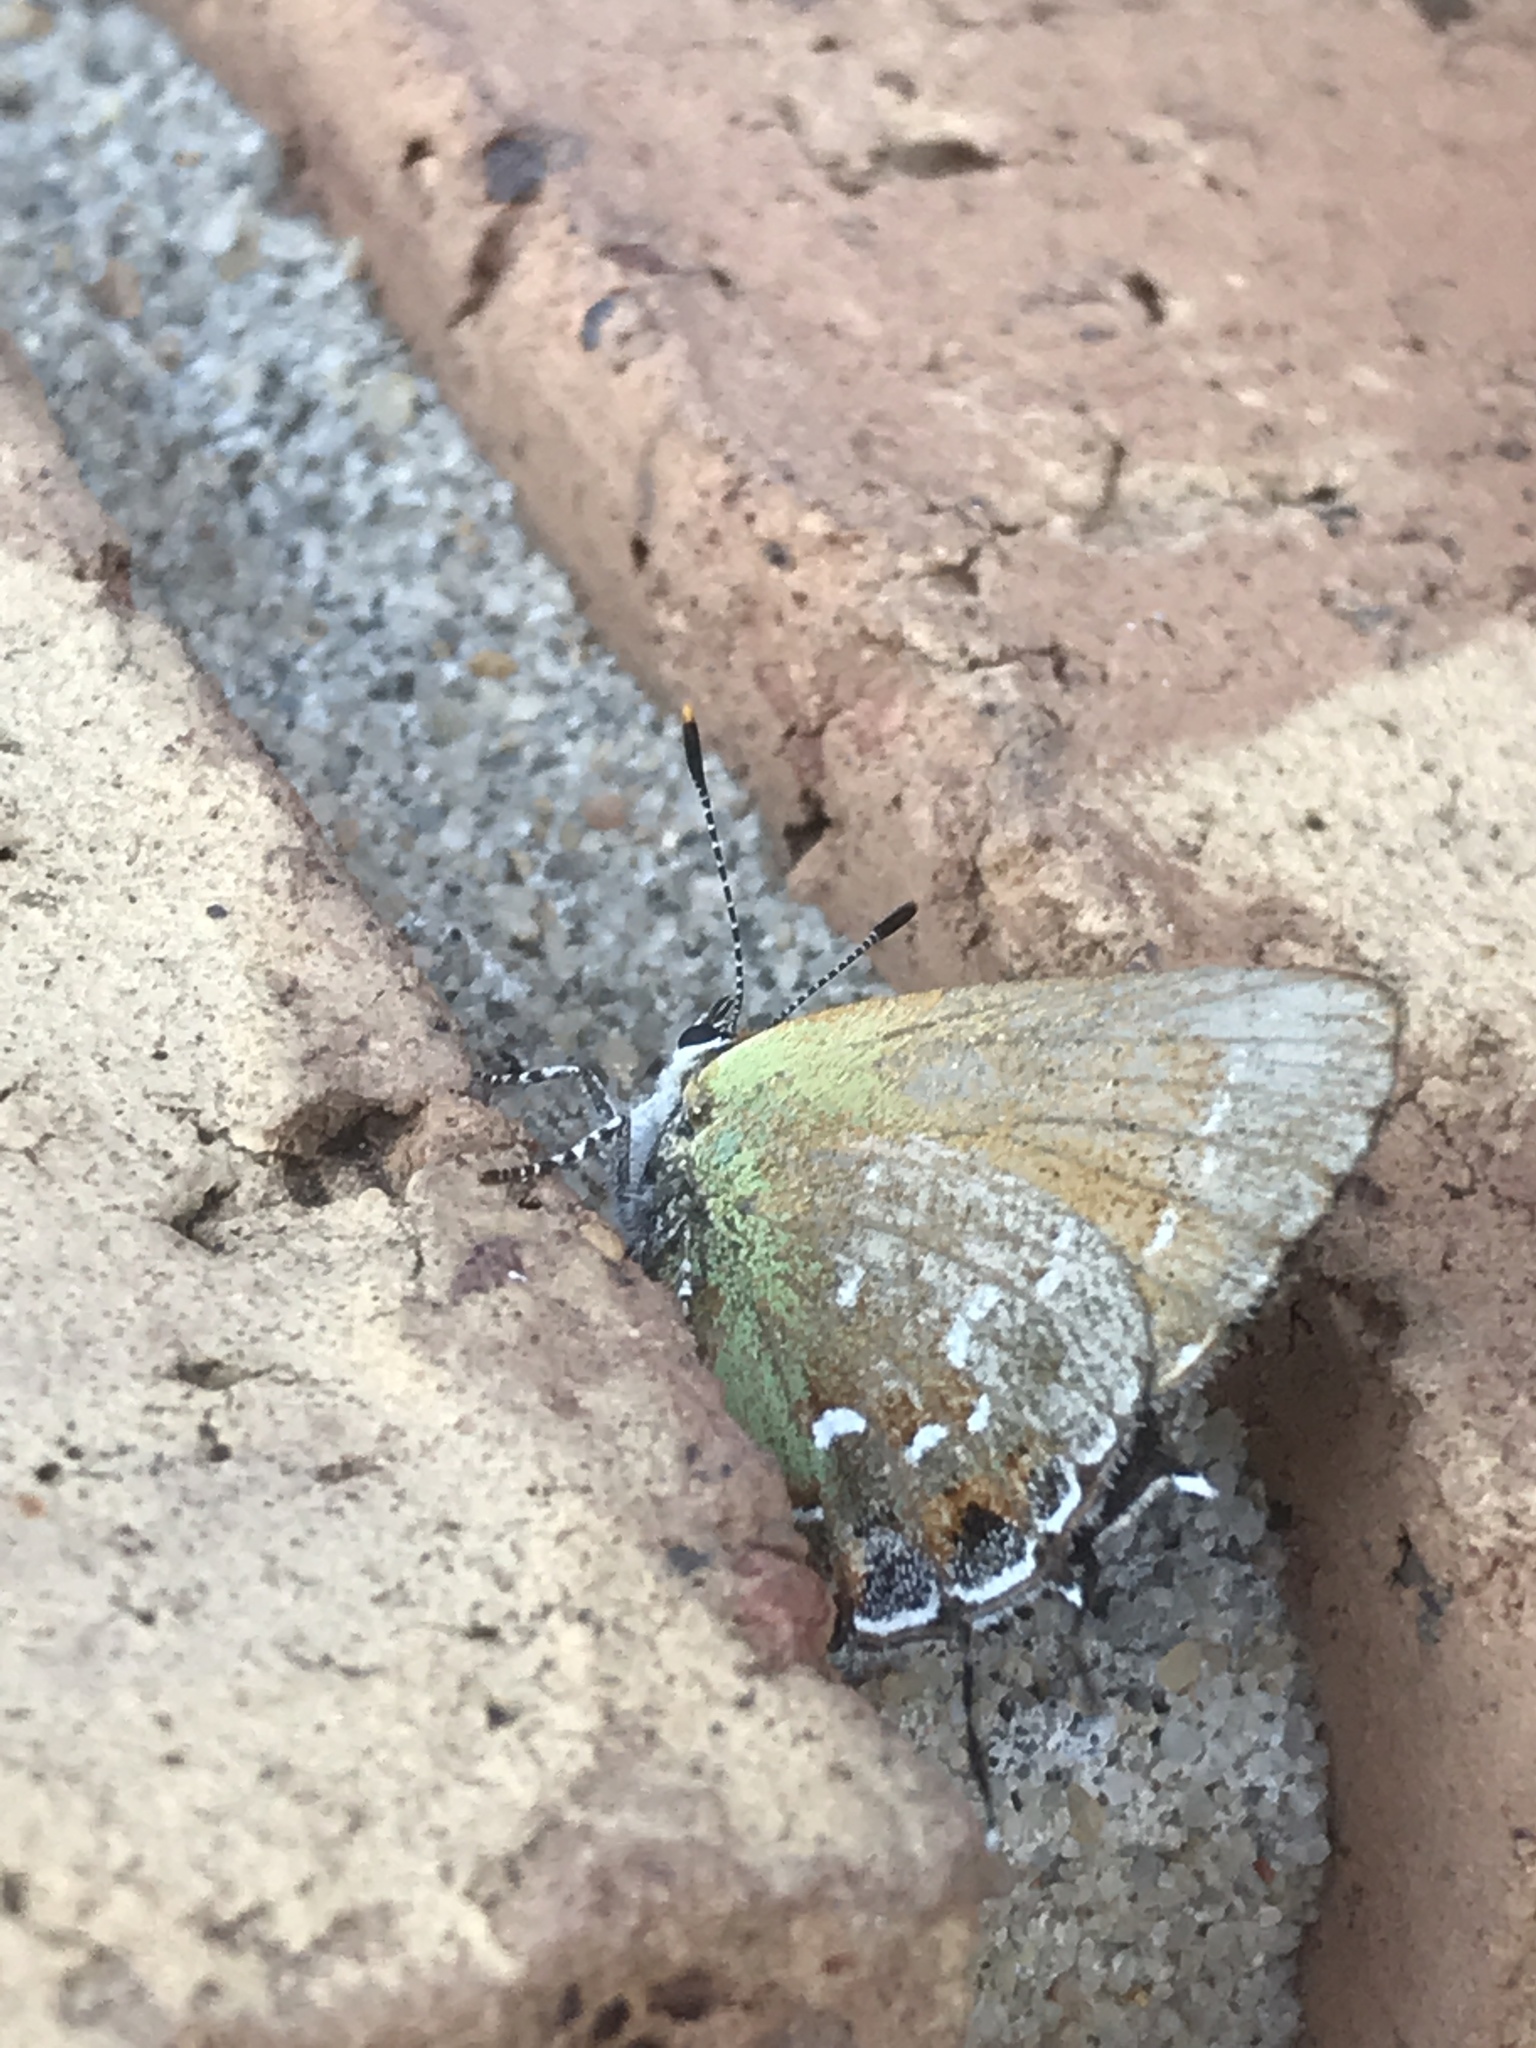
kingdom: Animalia
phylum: Arthropoda
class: Insecta
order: Lepidoptera
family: Lycaenidae
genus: Mitoura
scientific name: Mitoura gryneus
